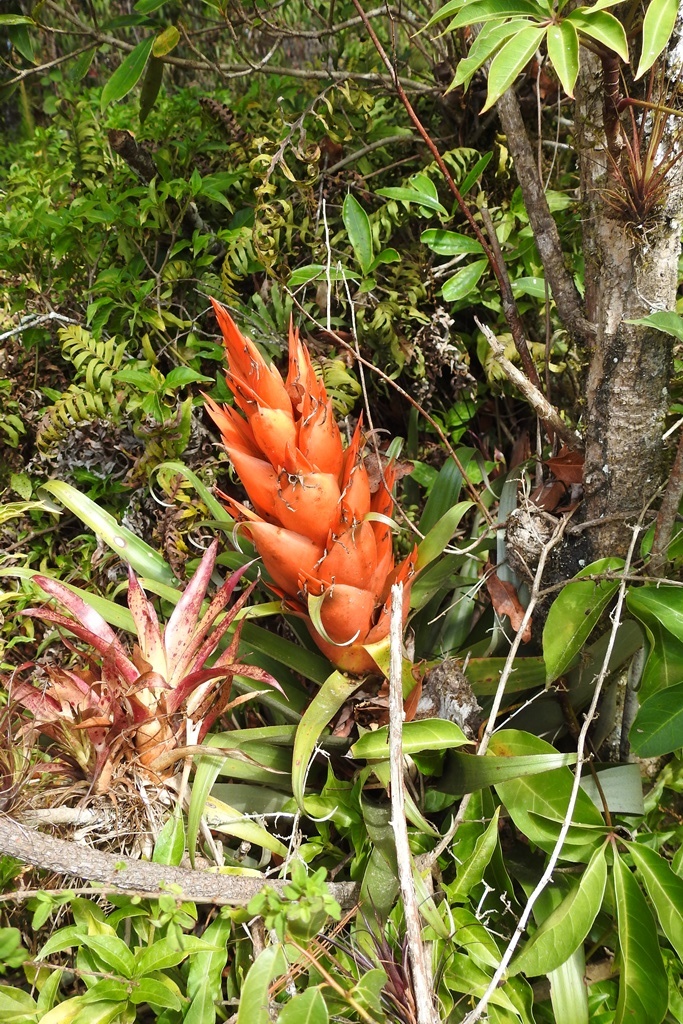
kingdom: Plantae
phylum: Tracheophyta
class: Liliopsida
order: Poales
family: Bromeliaceae
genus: Tillandsia
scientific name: Tillandsia ponderosa
